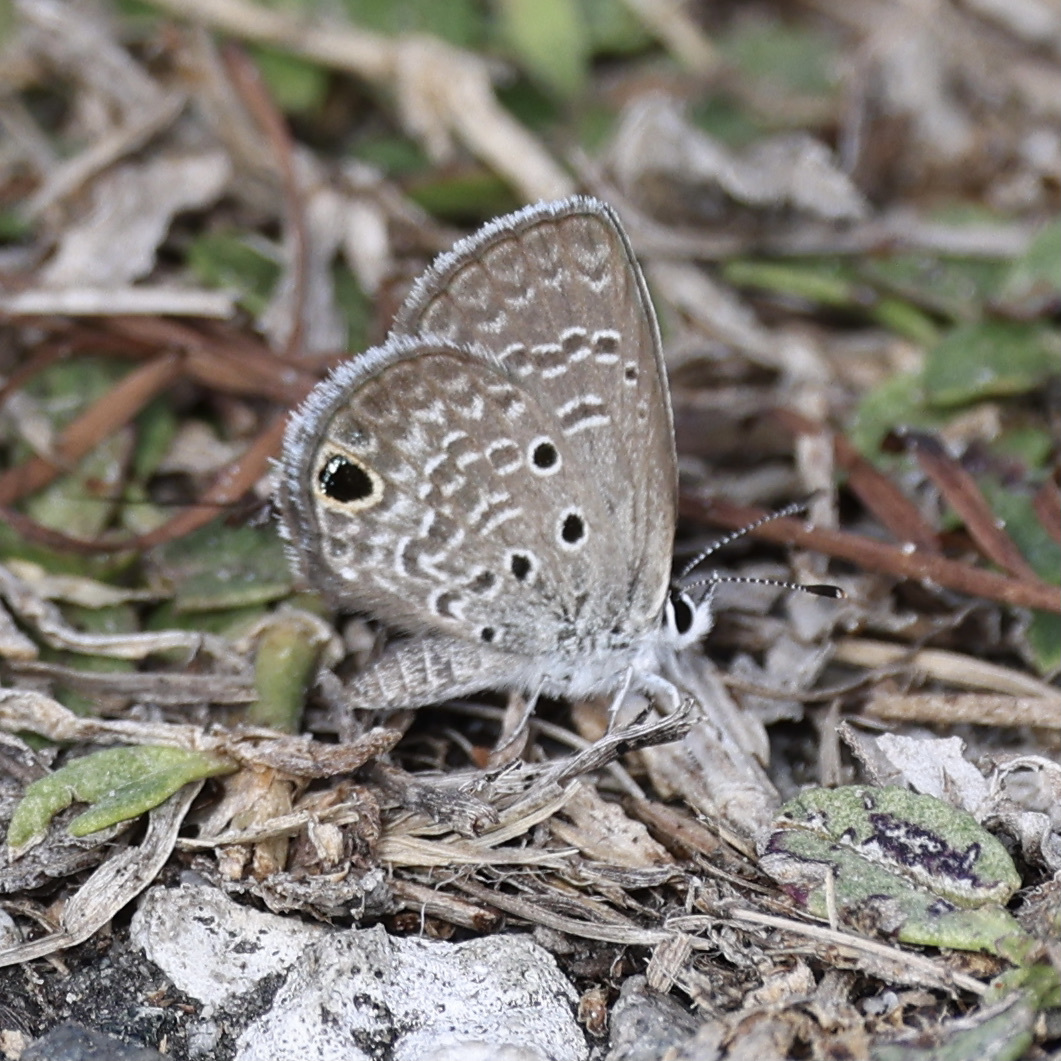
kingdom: Animalia
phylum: Arthropoda
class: Insecta
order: Lepidoptera
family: Lycaenidae
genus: Hemiargus
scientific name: Hemiargus ceraunus
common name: Ceraunus blue
